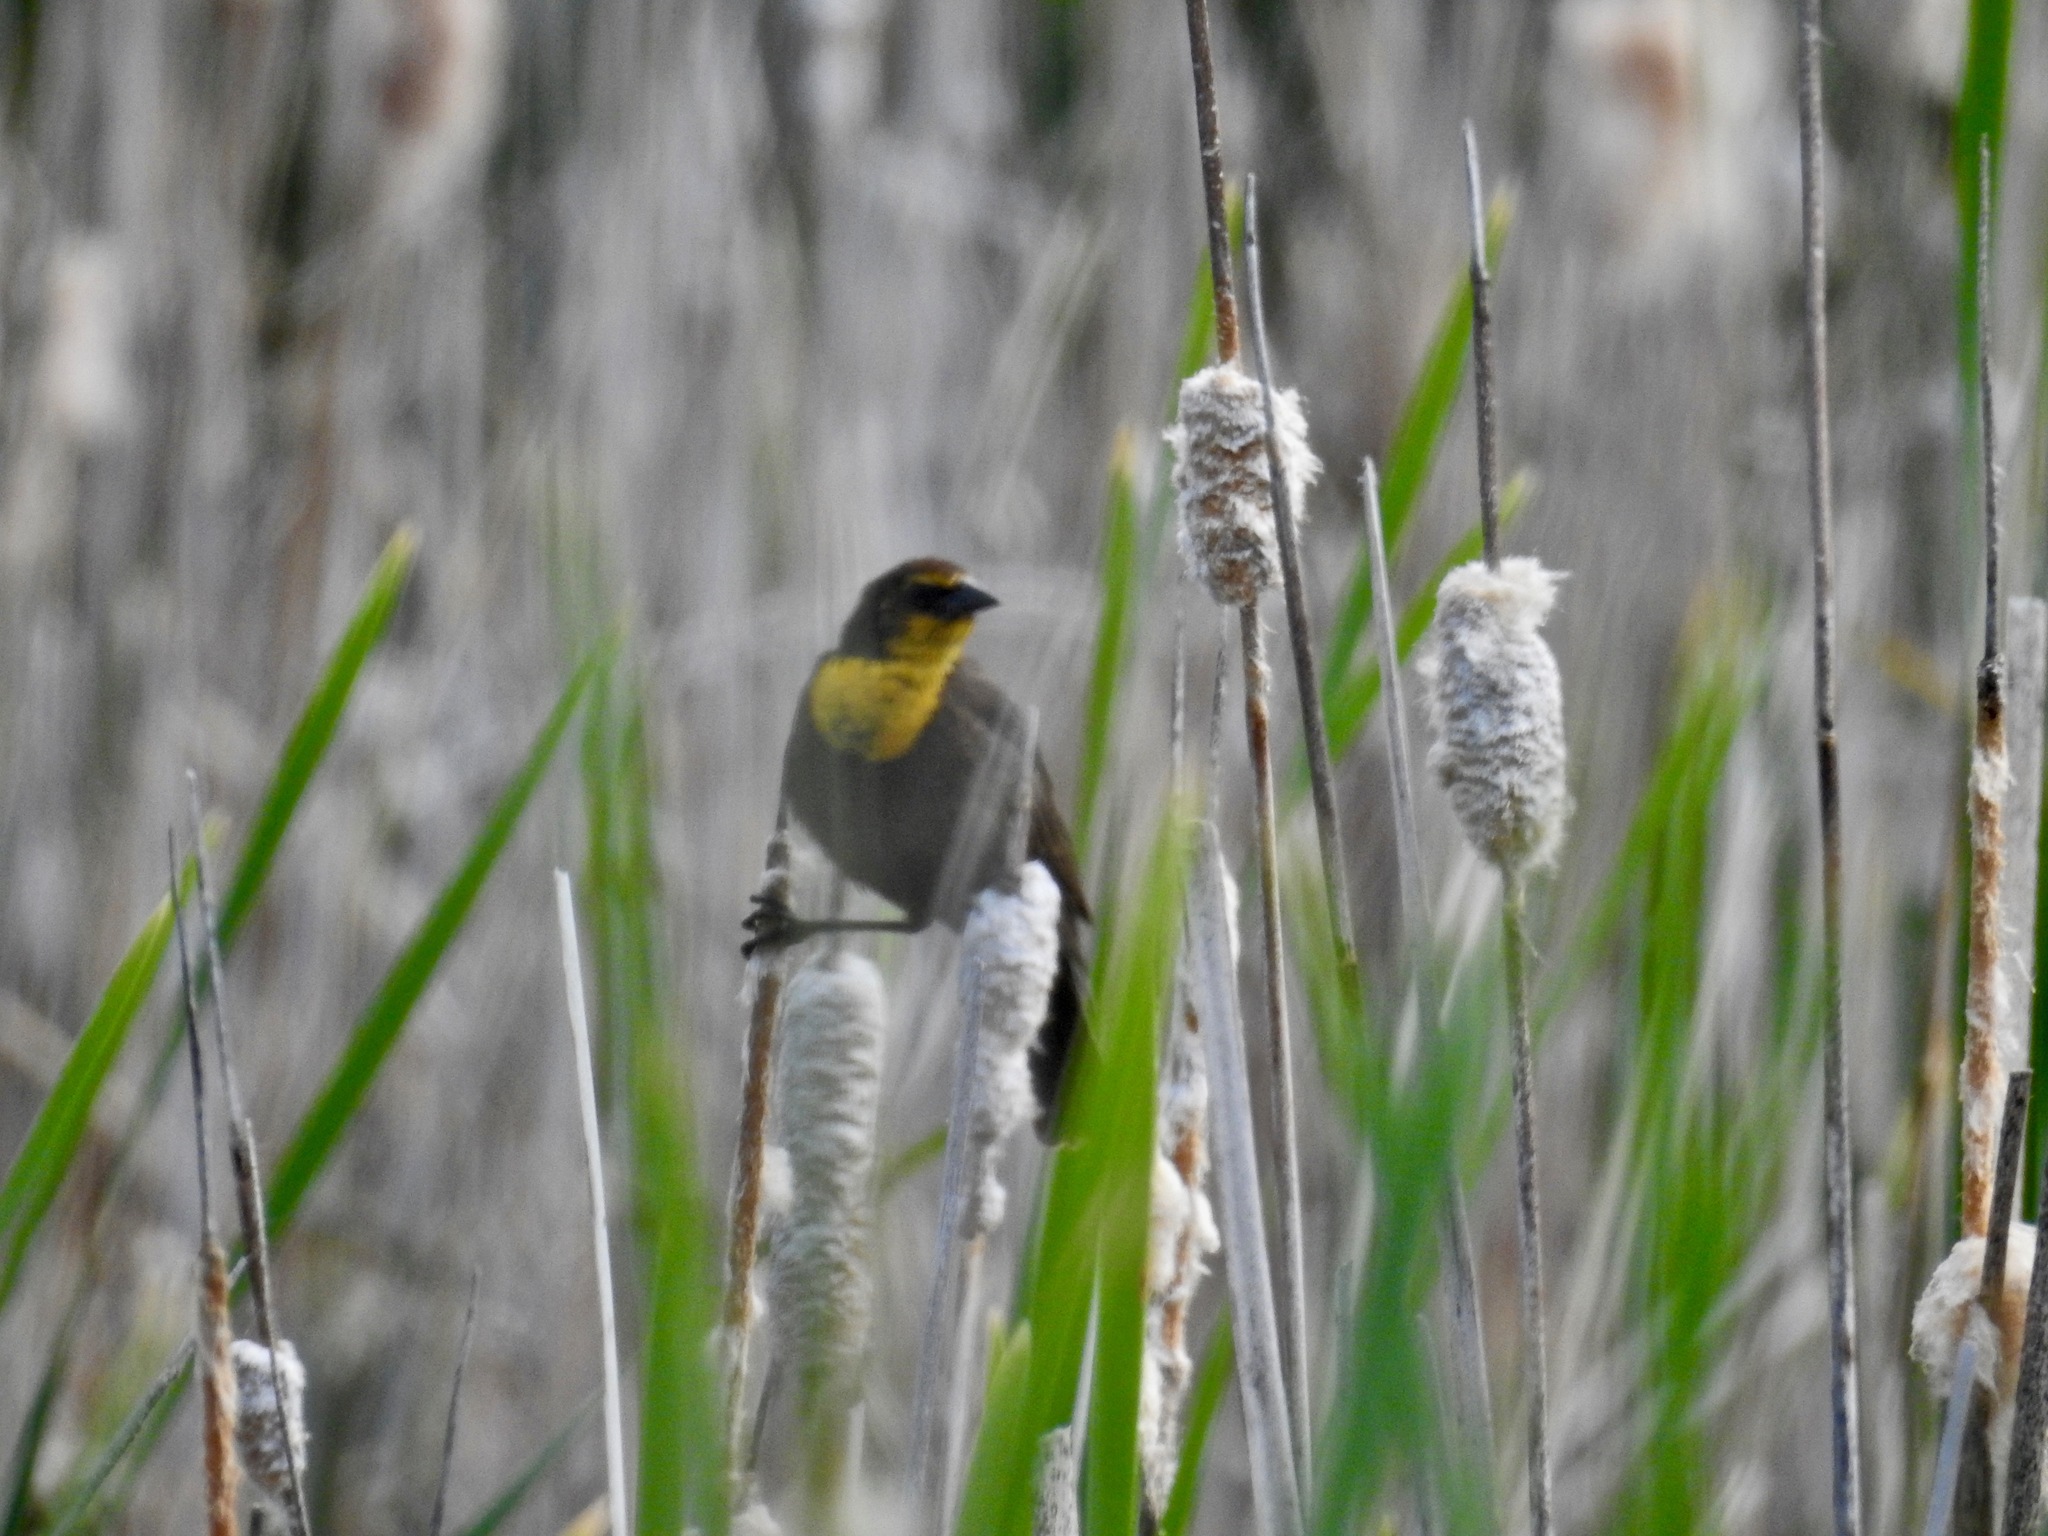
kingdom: Animalia
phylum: Chordata
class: Aves
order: Passeriformes
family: Icteridae
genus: Xanthocephalus
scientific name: Xanthocephalus xanthocephalus
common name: Yellow-headed blackbird
